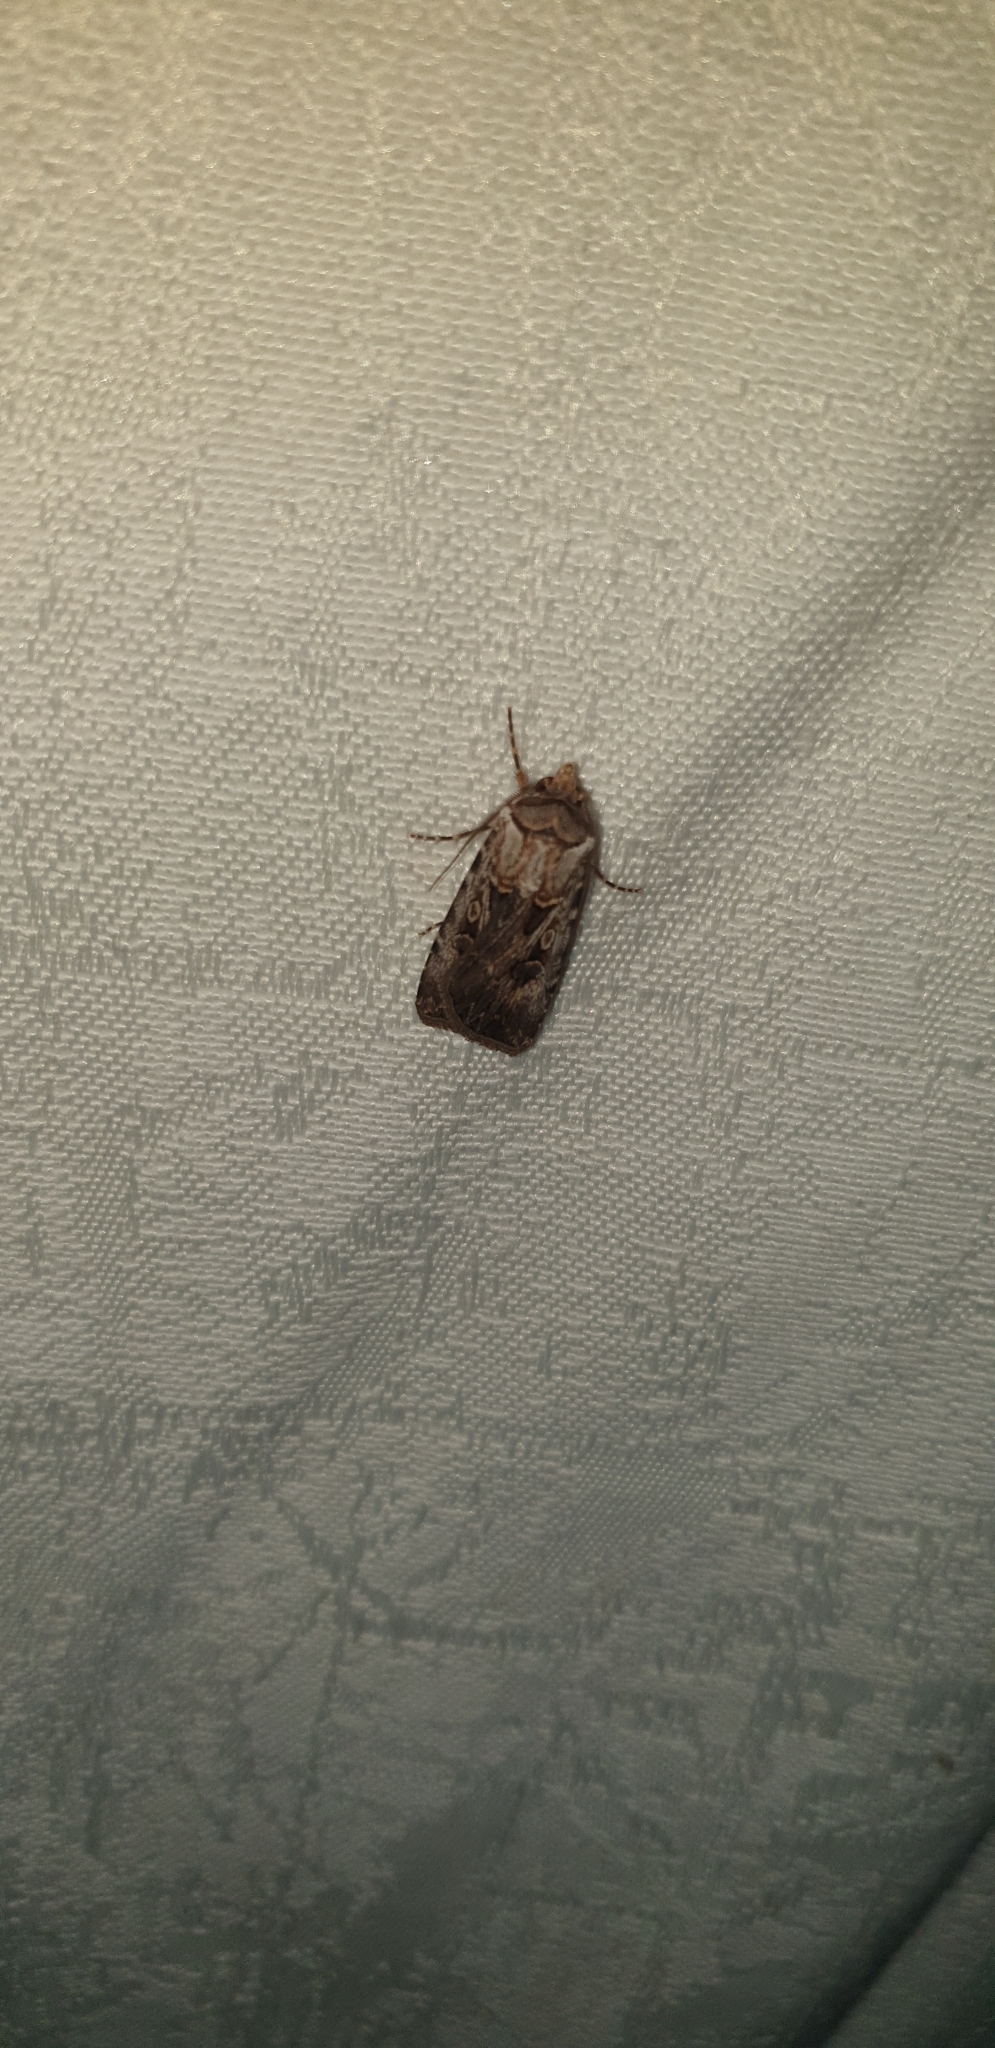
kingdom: Animalia
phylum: Arthropoda
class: Insecta
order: Lepidoptera
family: Noctuidae
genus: Agrotis
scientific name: Agrotis munda
